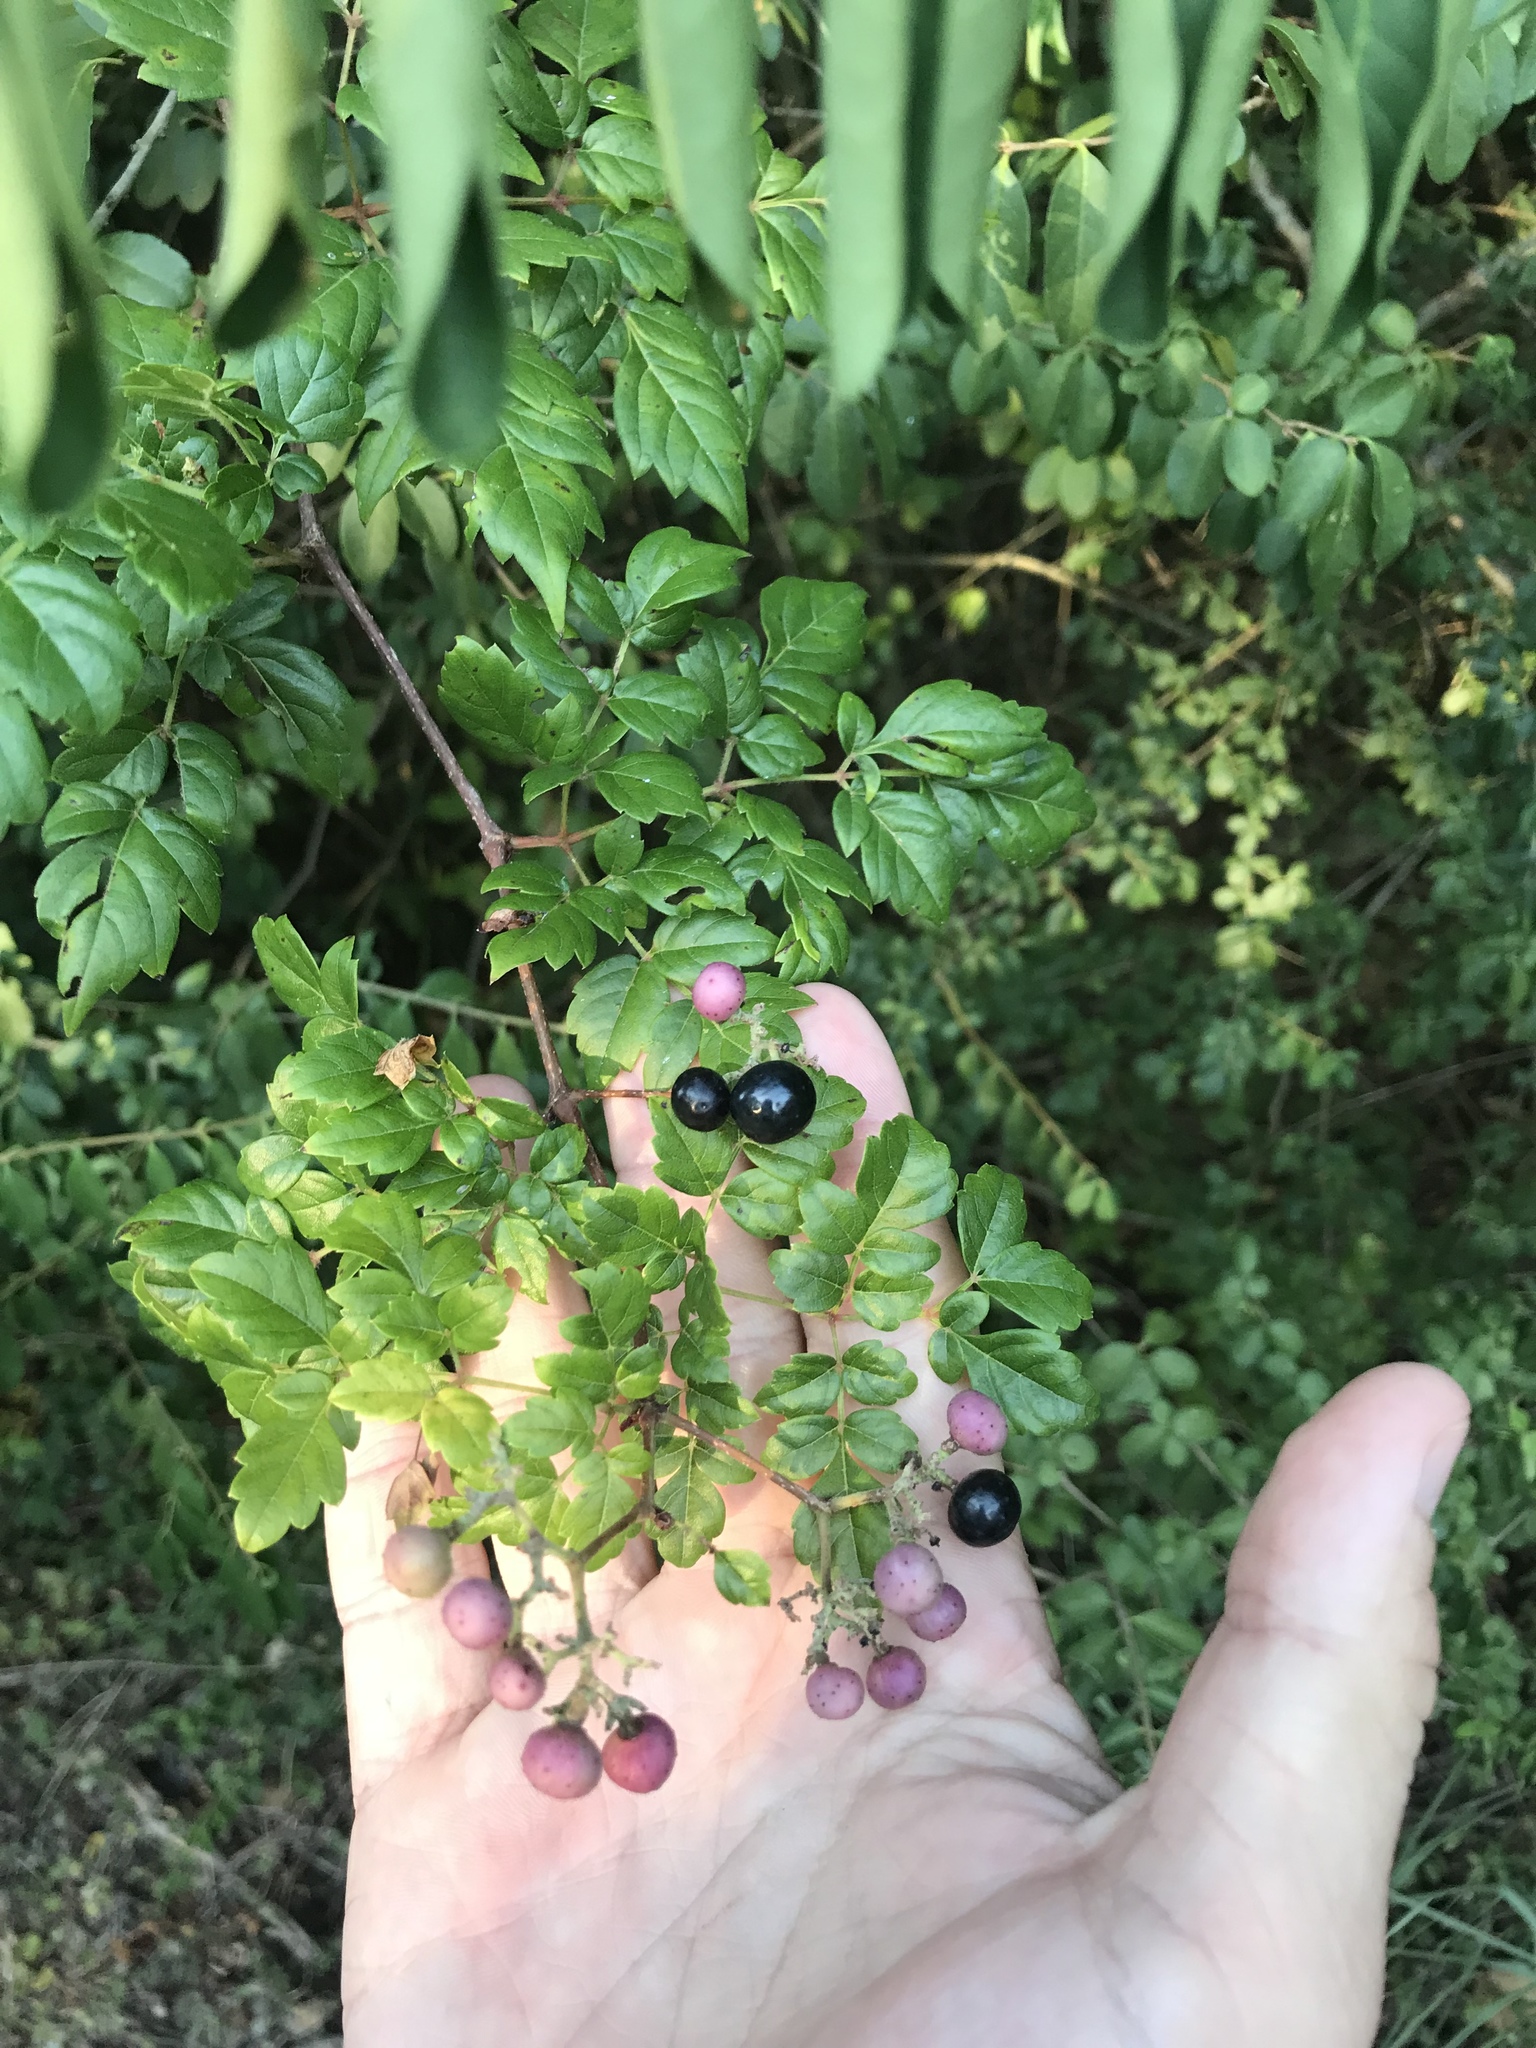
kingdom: Plantae
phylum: Tracheophyta
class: Magnoliopsida
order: Vitales
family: Vitaceae
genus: Nekemias
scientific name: Nekemias arborea
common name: Peppervine
